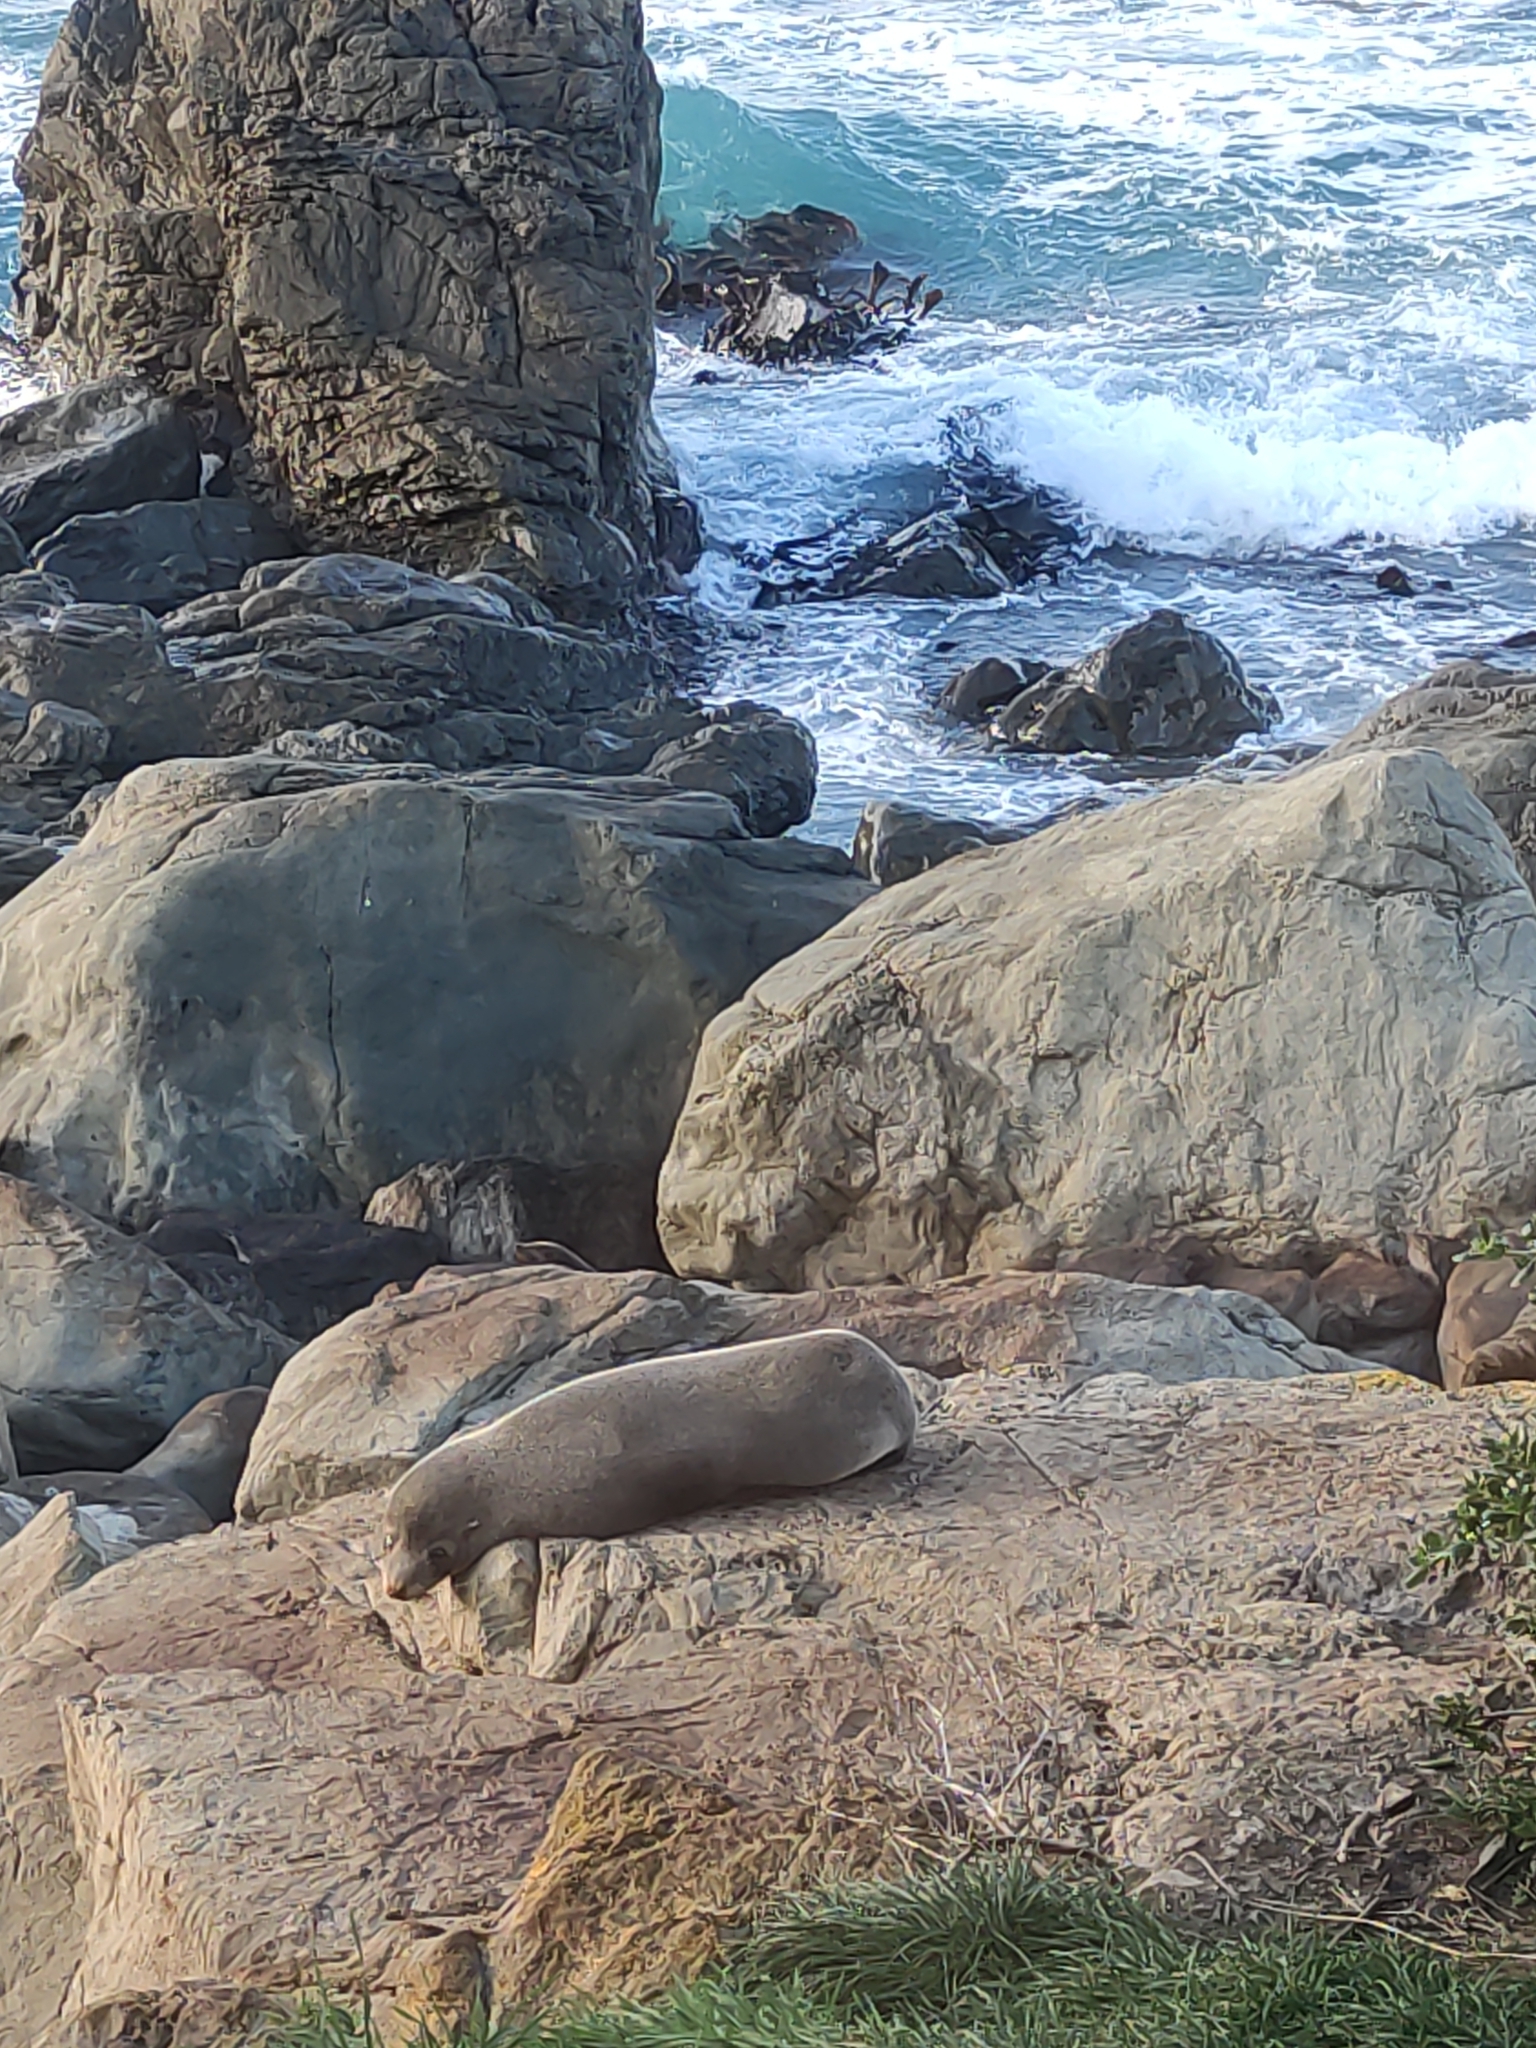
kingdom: Animalia
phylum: Chordata
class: Mammalia
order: Carnivora
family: Otariidae
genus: Arctocephalus
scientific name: Arctocephalus forsteri
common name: New zealand fur seal
